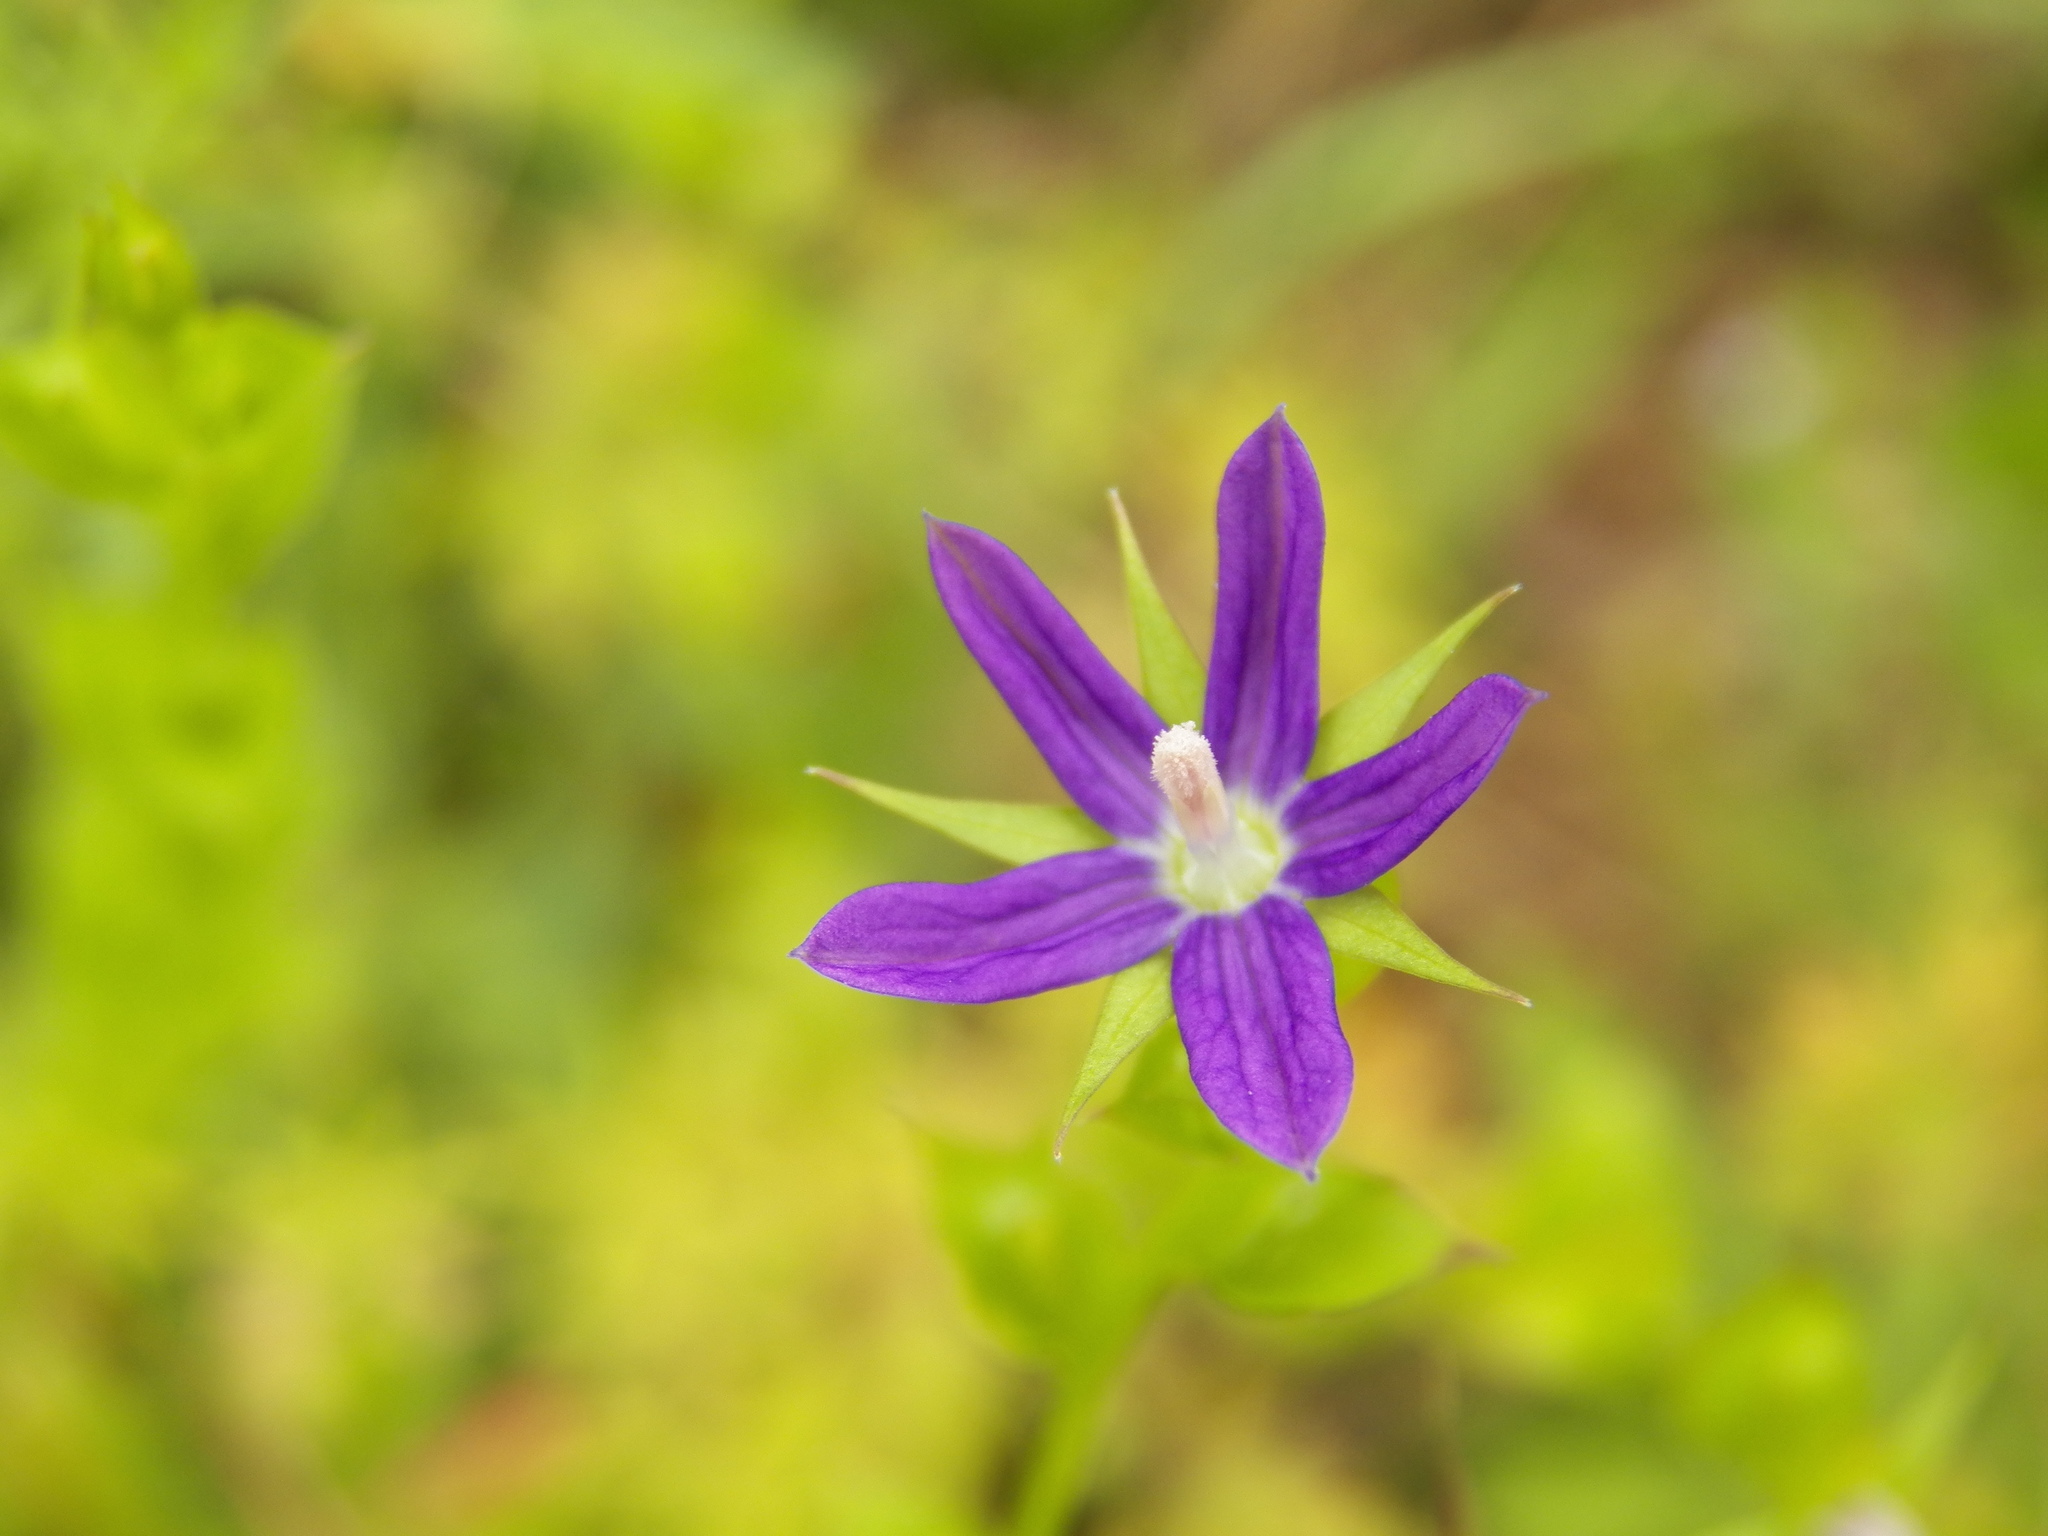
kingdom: Plantae
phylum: Tracheophyta
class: Magnoliopsida
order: Asterales
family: Campanulaceae
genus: Triodanis
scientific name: Triodanis biflora
